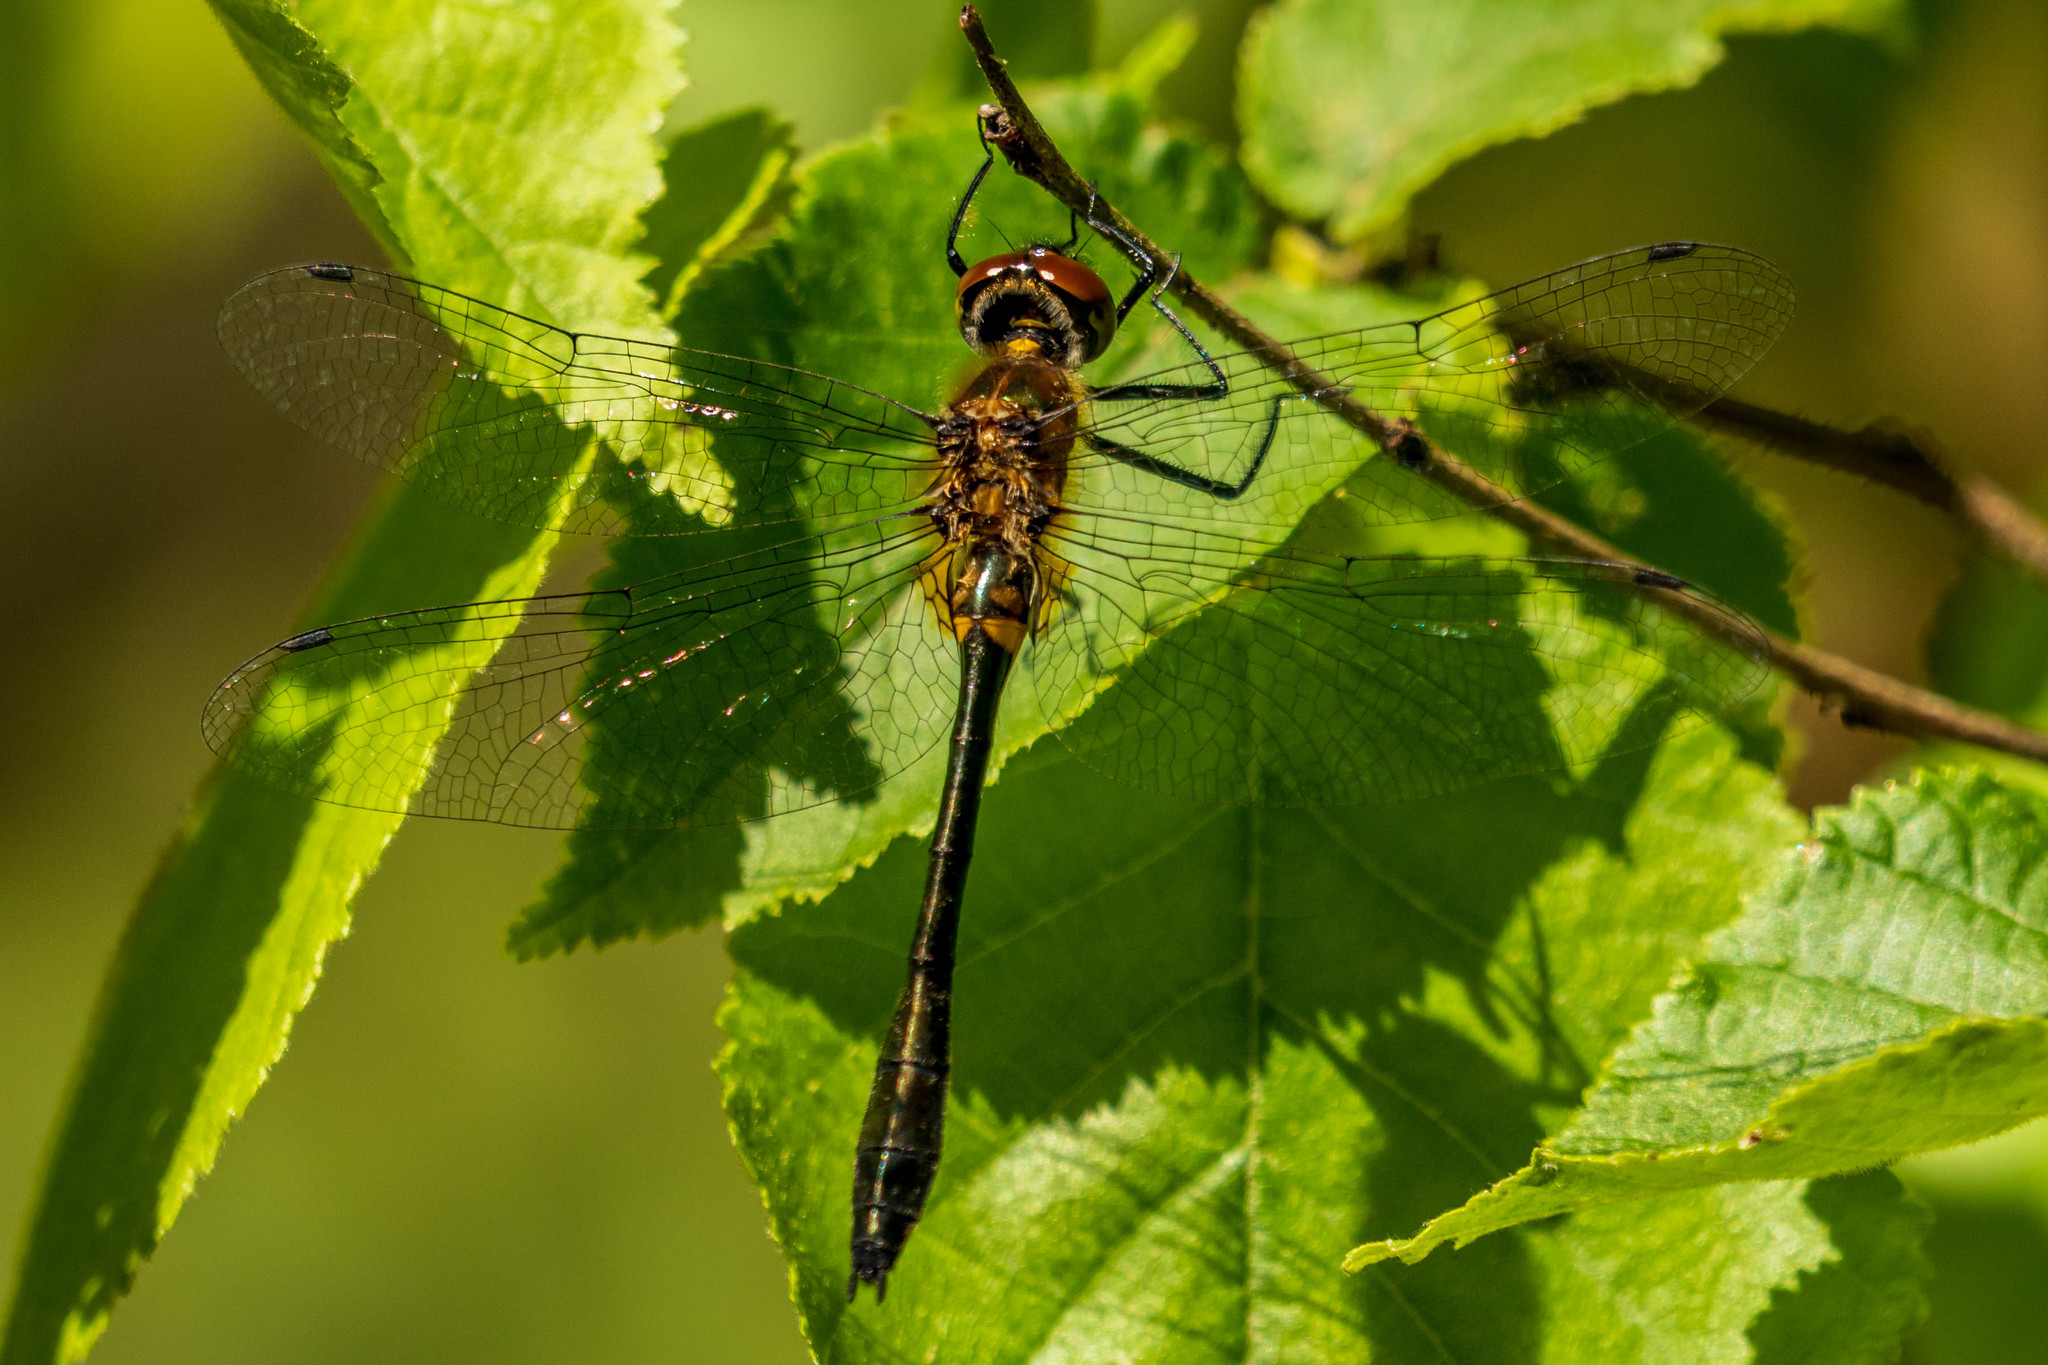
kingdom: Animalia
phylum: Arthropoda
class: Insecta
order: Odonata
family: Corduliidae
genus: Dorocordulia
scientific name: Dorocordulia libera
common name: Racket-tailed emerald
